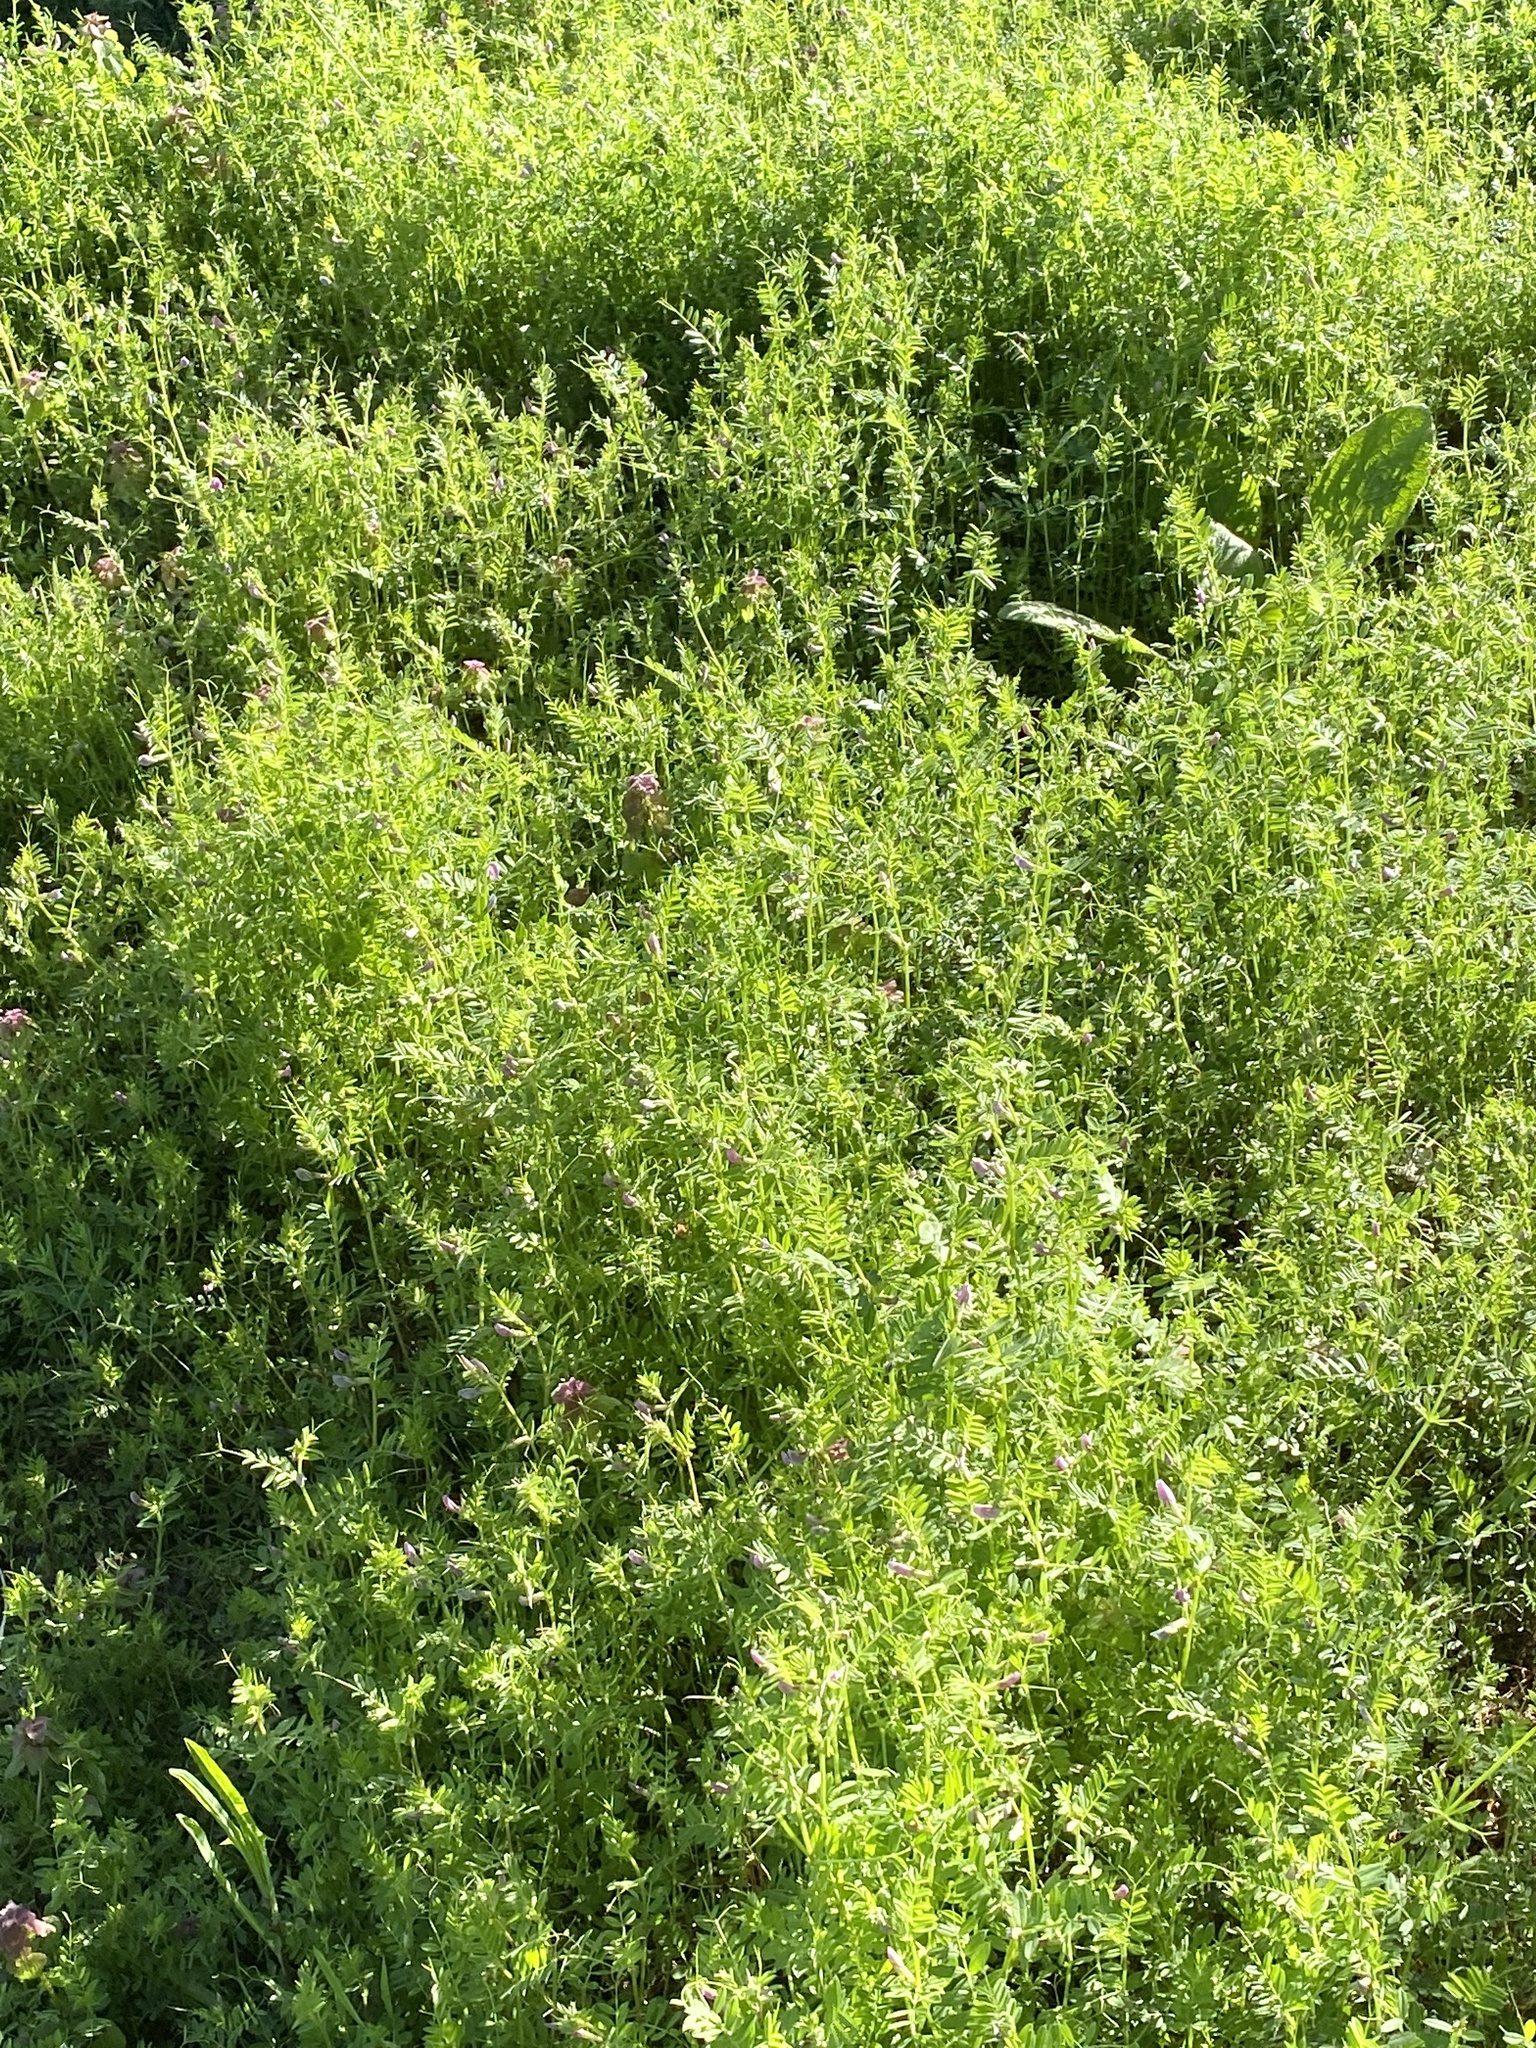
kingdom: Plantae
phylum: Tracheophyta
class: Magnoliopsida
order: Fabales
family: Fabaceae
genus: Vicia
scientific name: Vicia sativa
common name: Garden vetch
